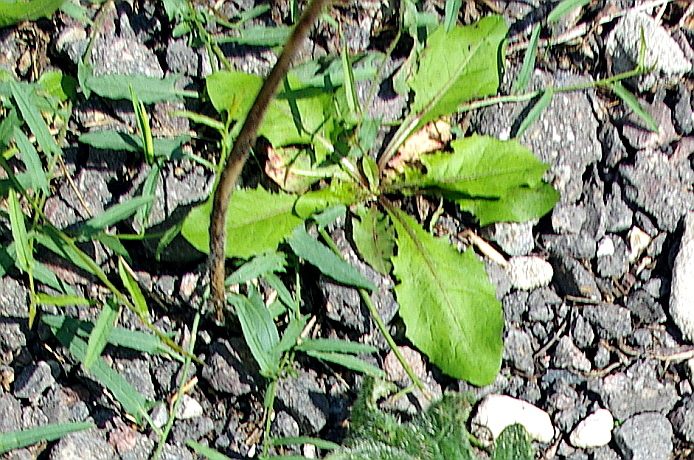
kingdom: Plantae
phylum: Tracheophyta
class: Magnoliopsida
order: Asterales
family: Asteraceae
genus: Taraxacum
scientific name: Taraxacum officinale
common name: Common dandelion
